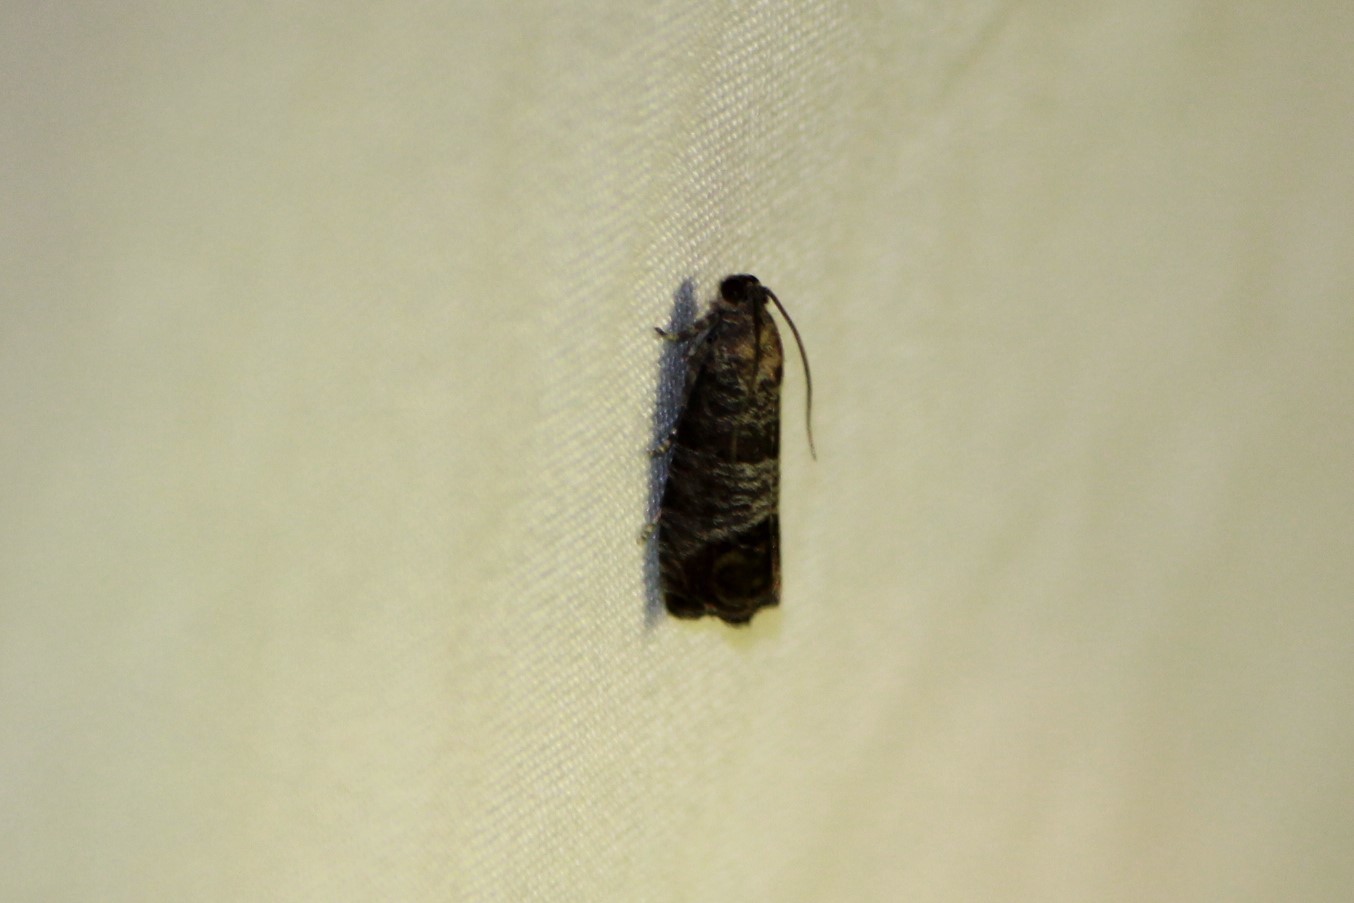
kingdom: Animalia
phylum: Arthropoda
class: Insecta
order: Lepidoptera
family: Tortricidae
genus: Cydia
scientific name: Cydia pomonella
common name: Codling moth
